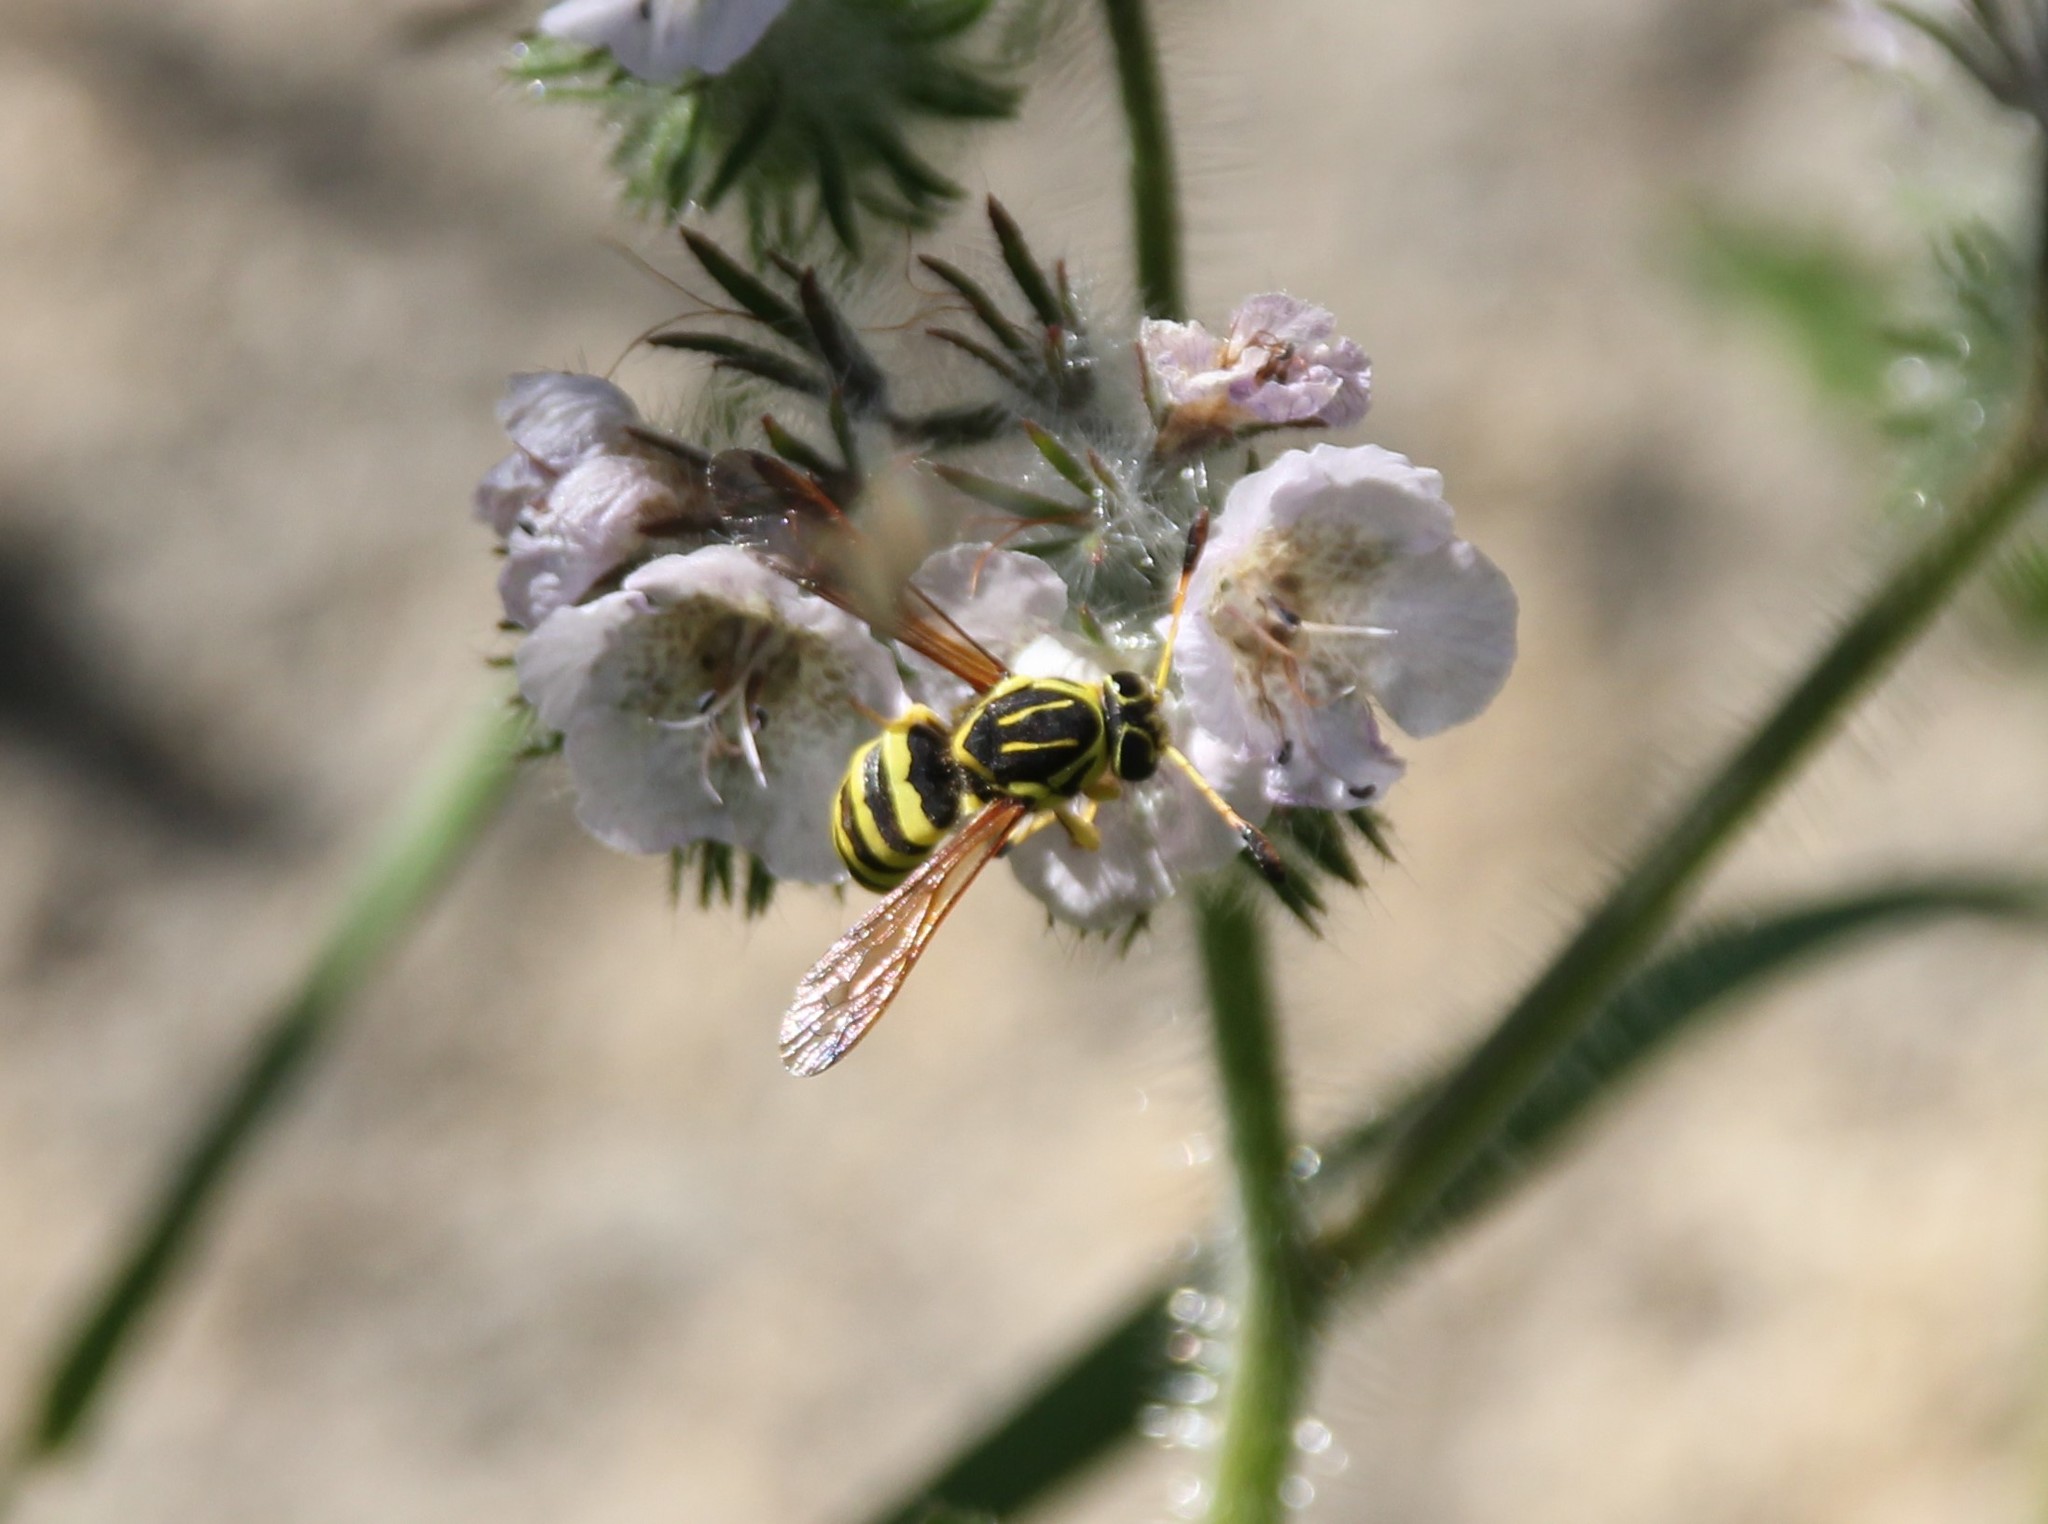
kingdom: Animalia
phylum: Arthropoda
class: Insecta
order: Hymenoptera
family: Masaridae
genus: Pseudomasaris
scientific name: Pseudomasaris coquilletti
